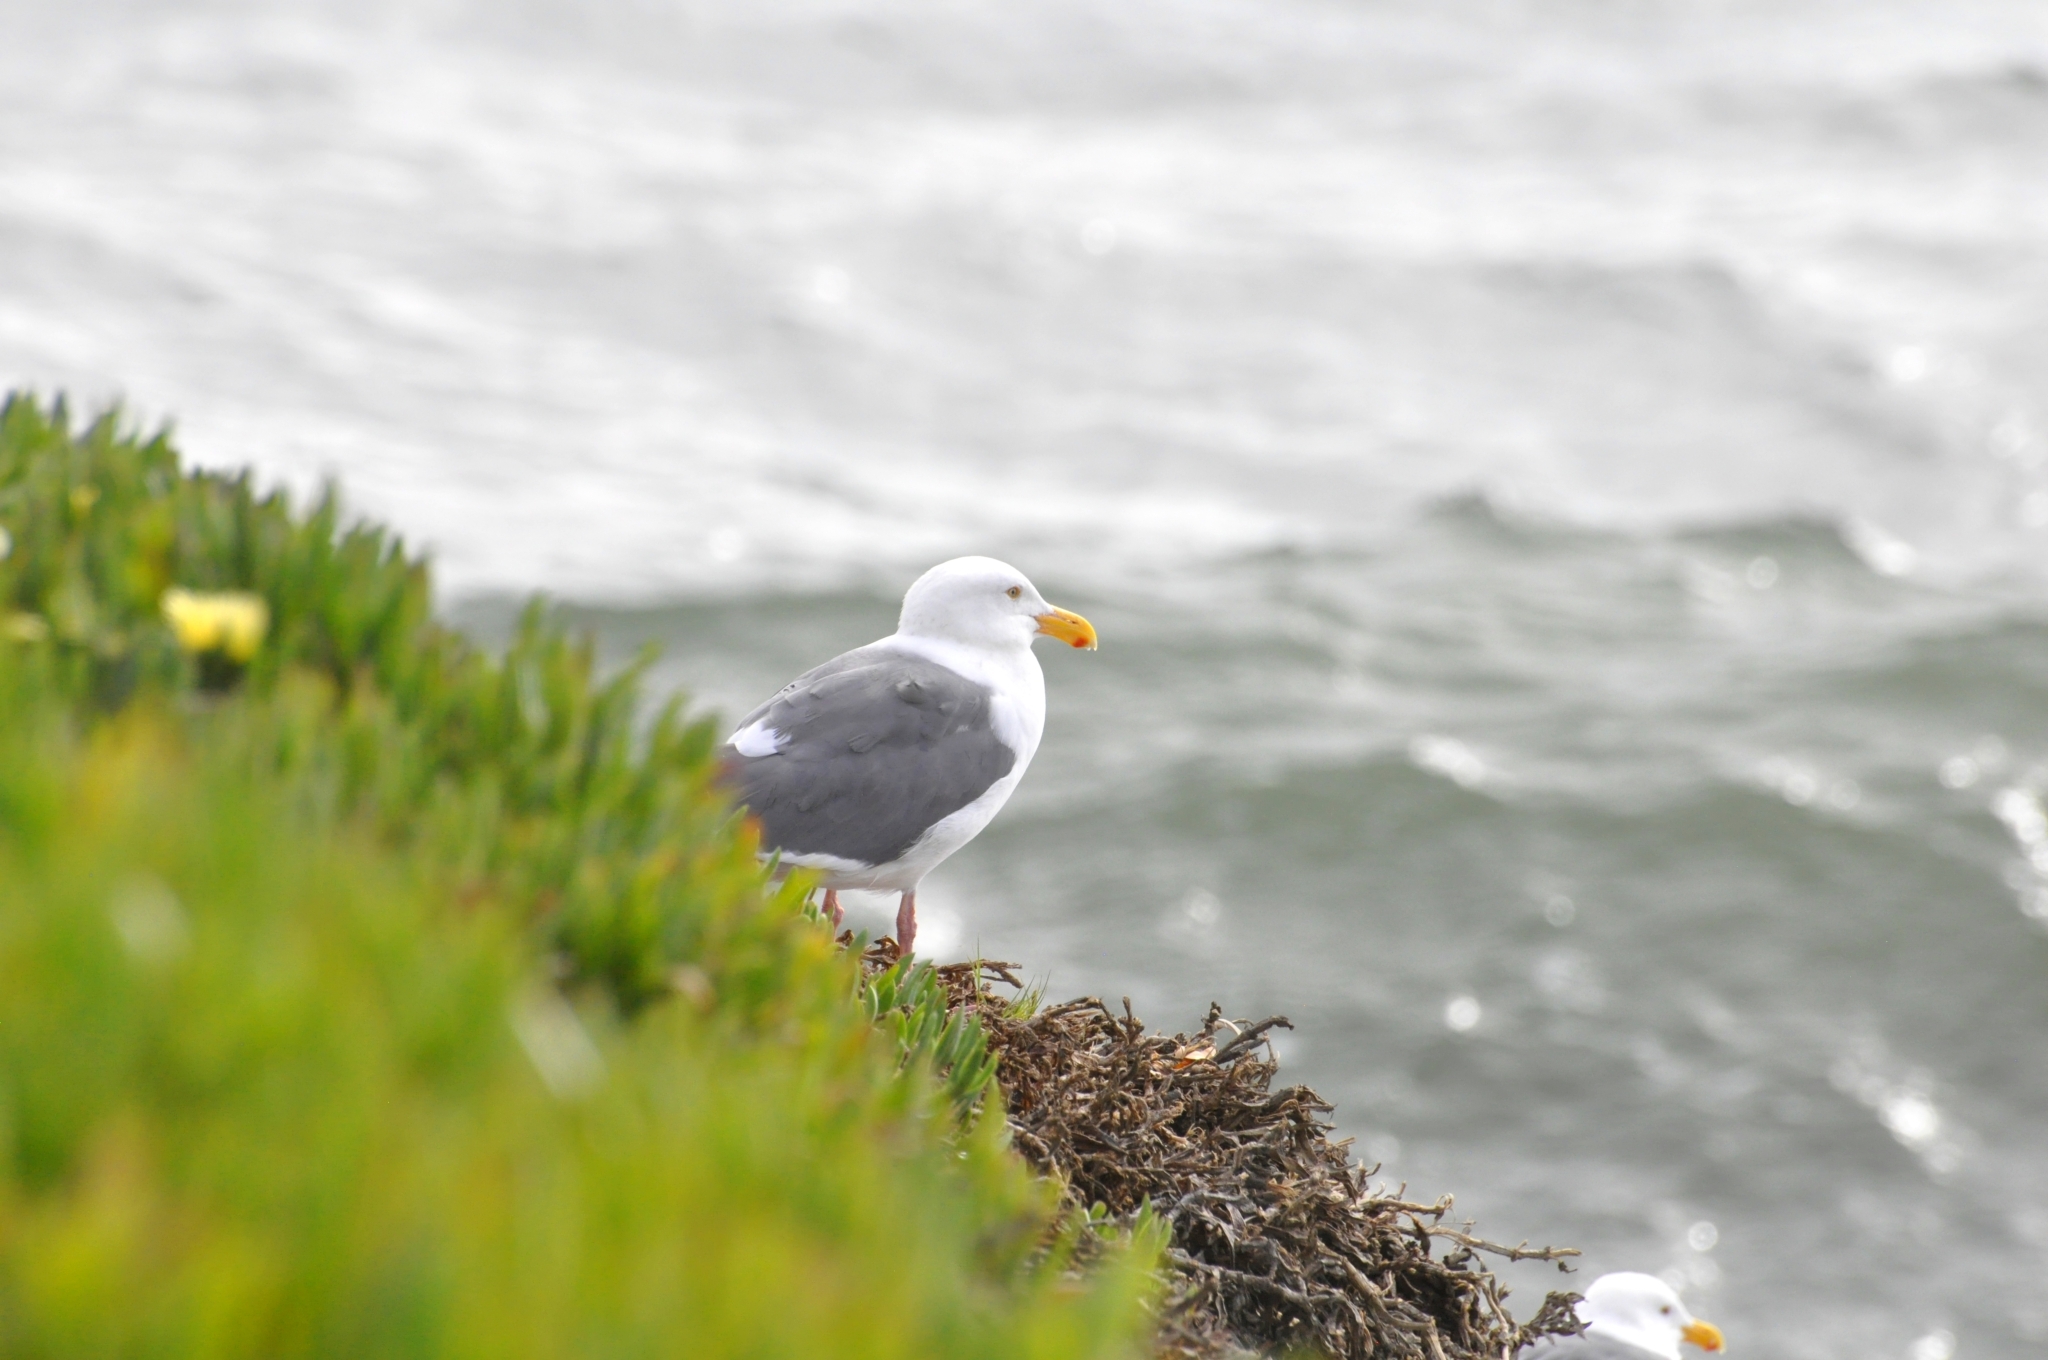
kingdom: Animalia
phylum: Chordata
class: Aves
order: Charadriiformes
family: Laridae
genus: Larus
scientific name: Larus occidentalis
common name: Western gull
